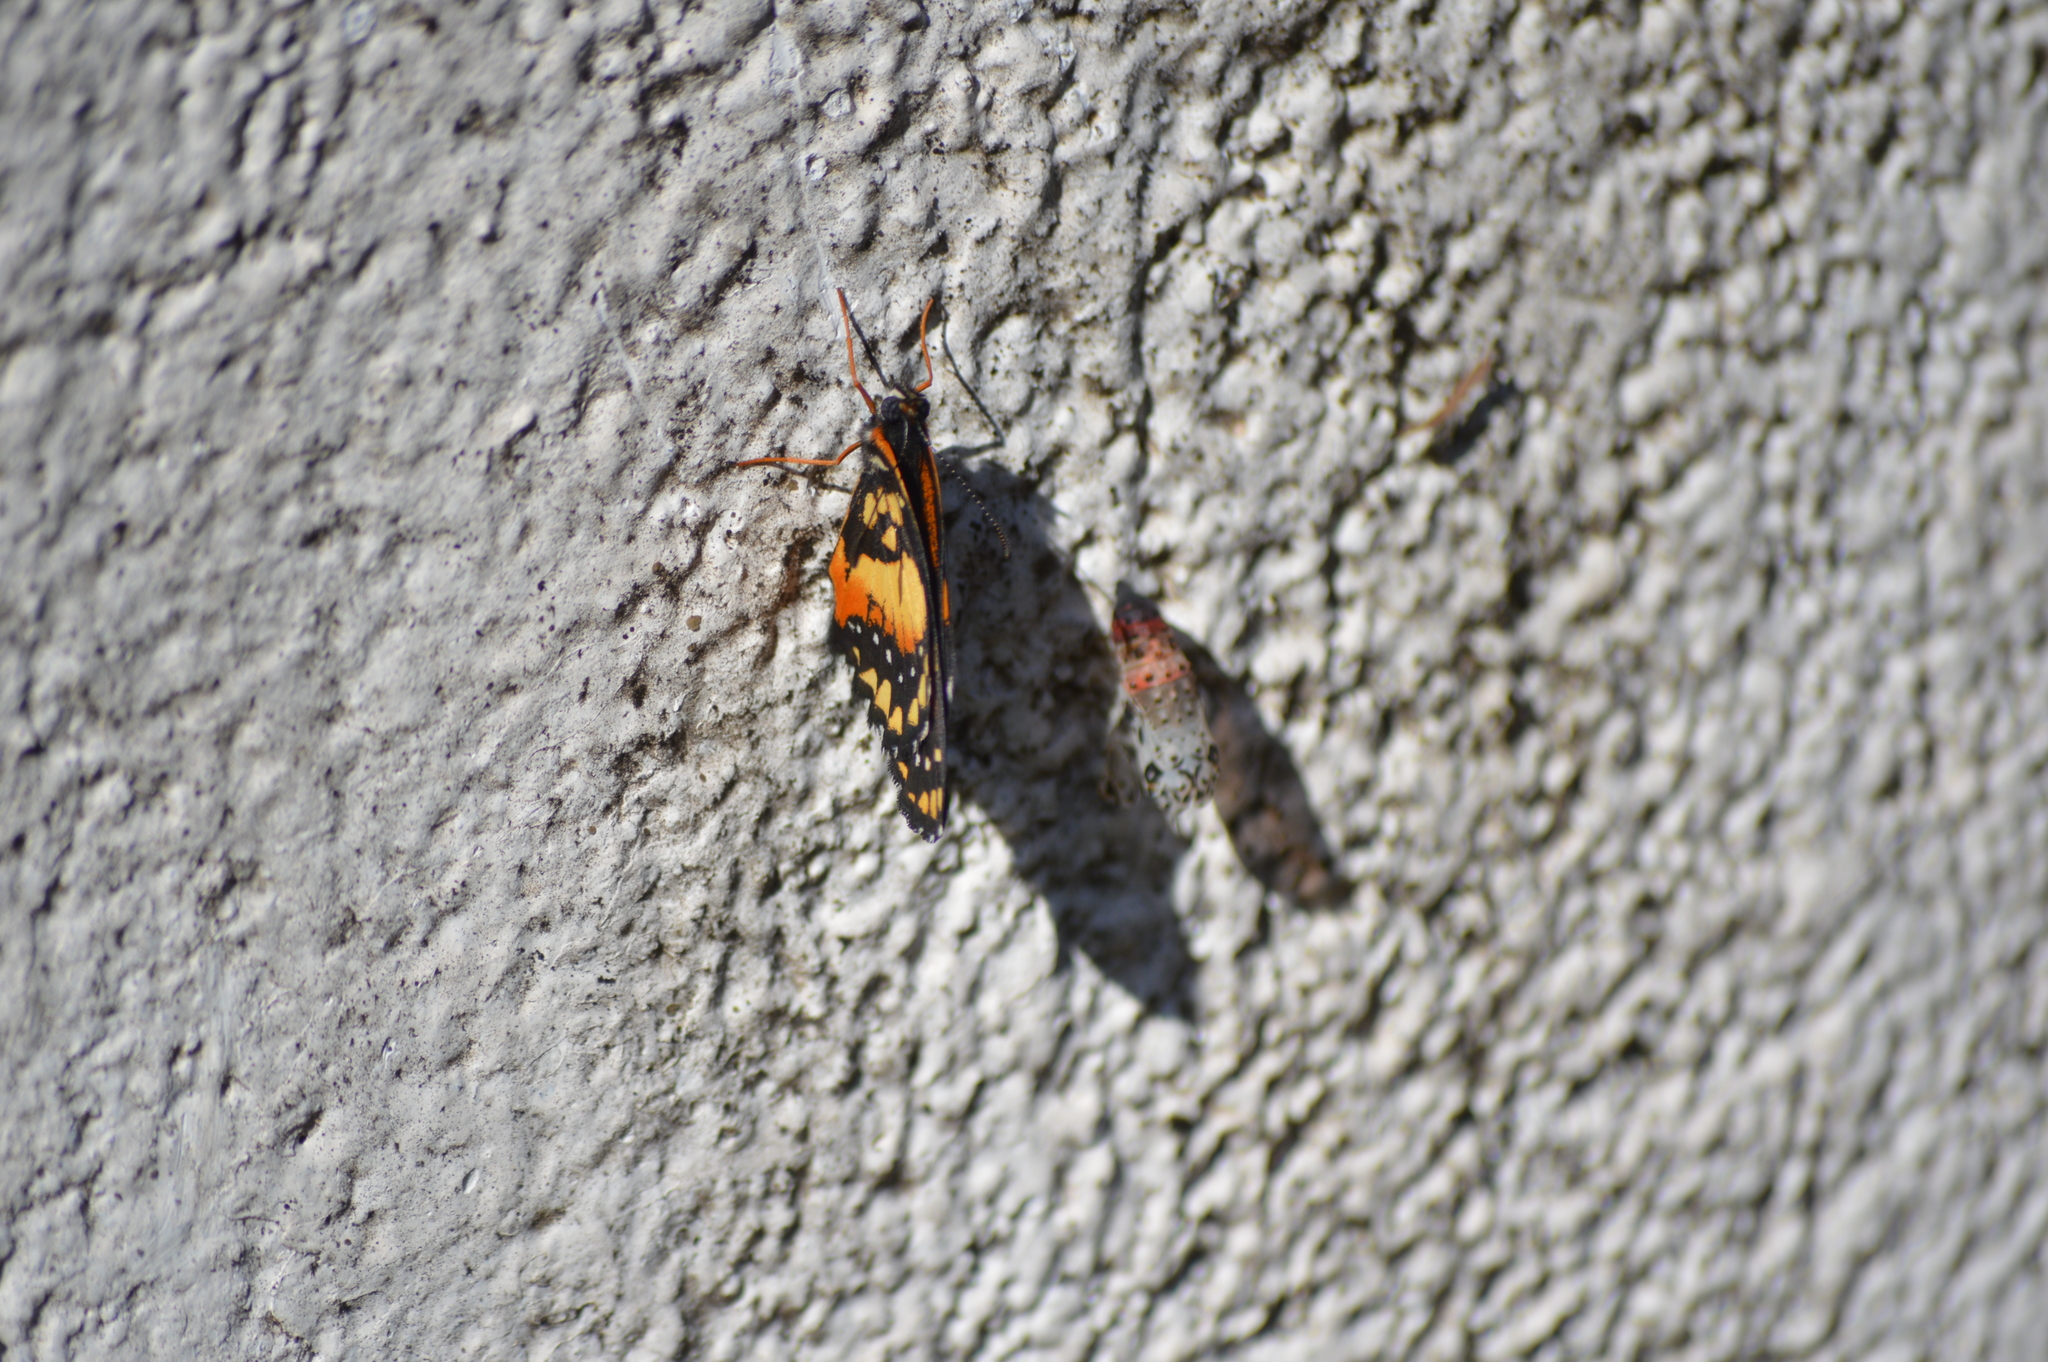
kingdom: Animalia
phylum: Arthropoda
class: Insecta
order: Lepidoptera
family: Nymphalidae
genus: Chlosyne
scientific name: Chlosyne lacinia
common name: Bordered patch
